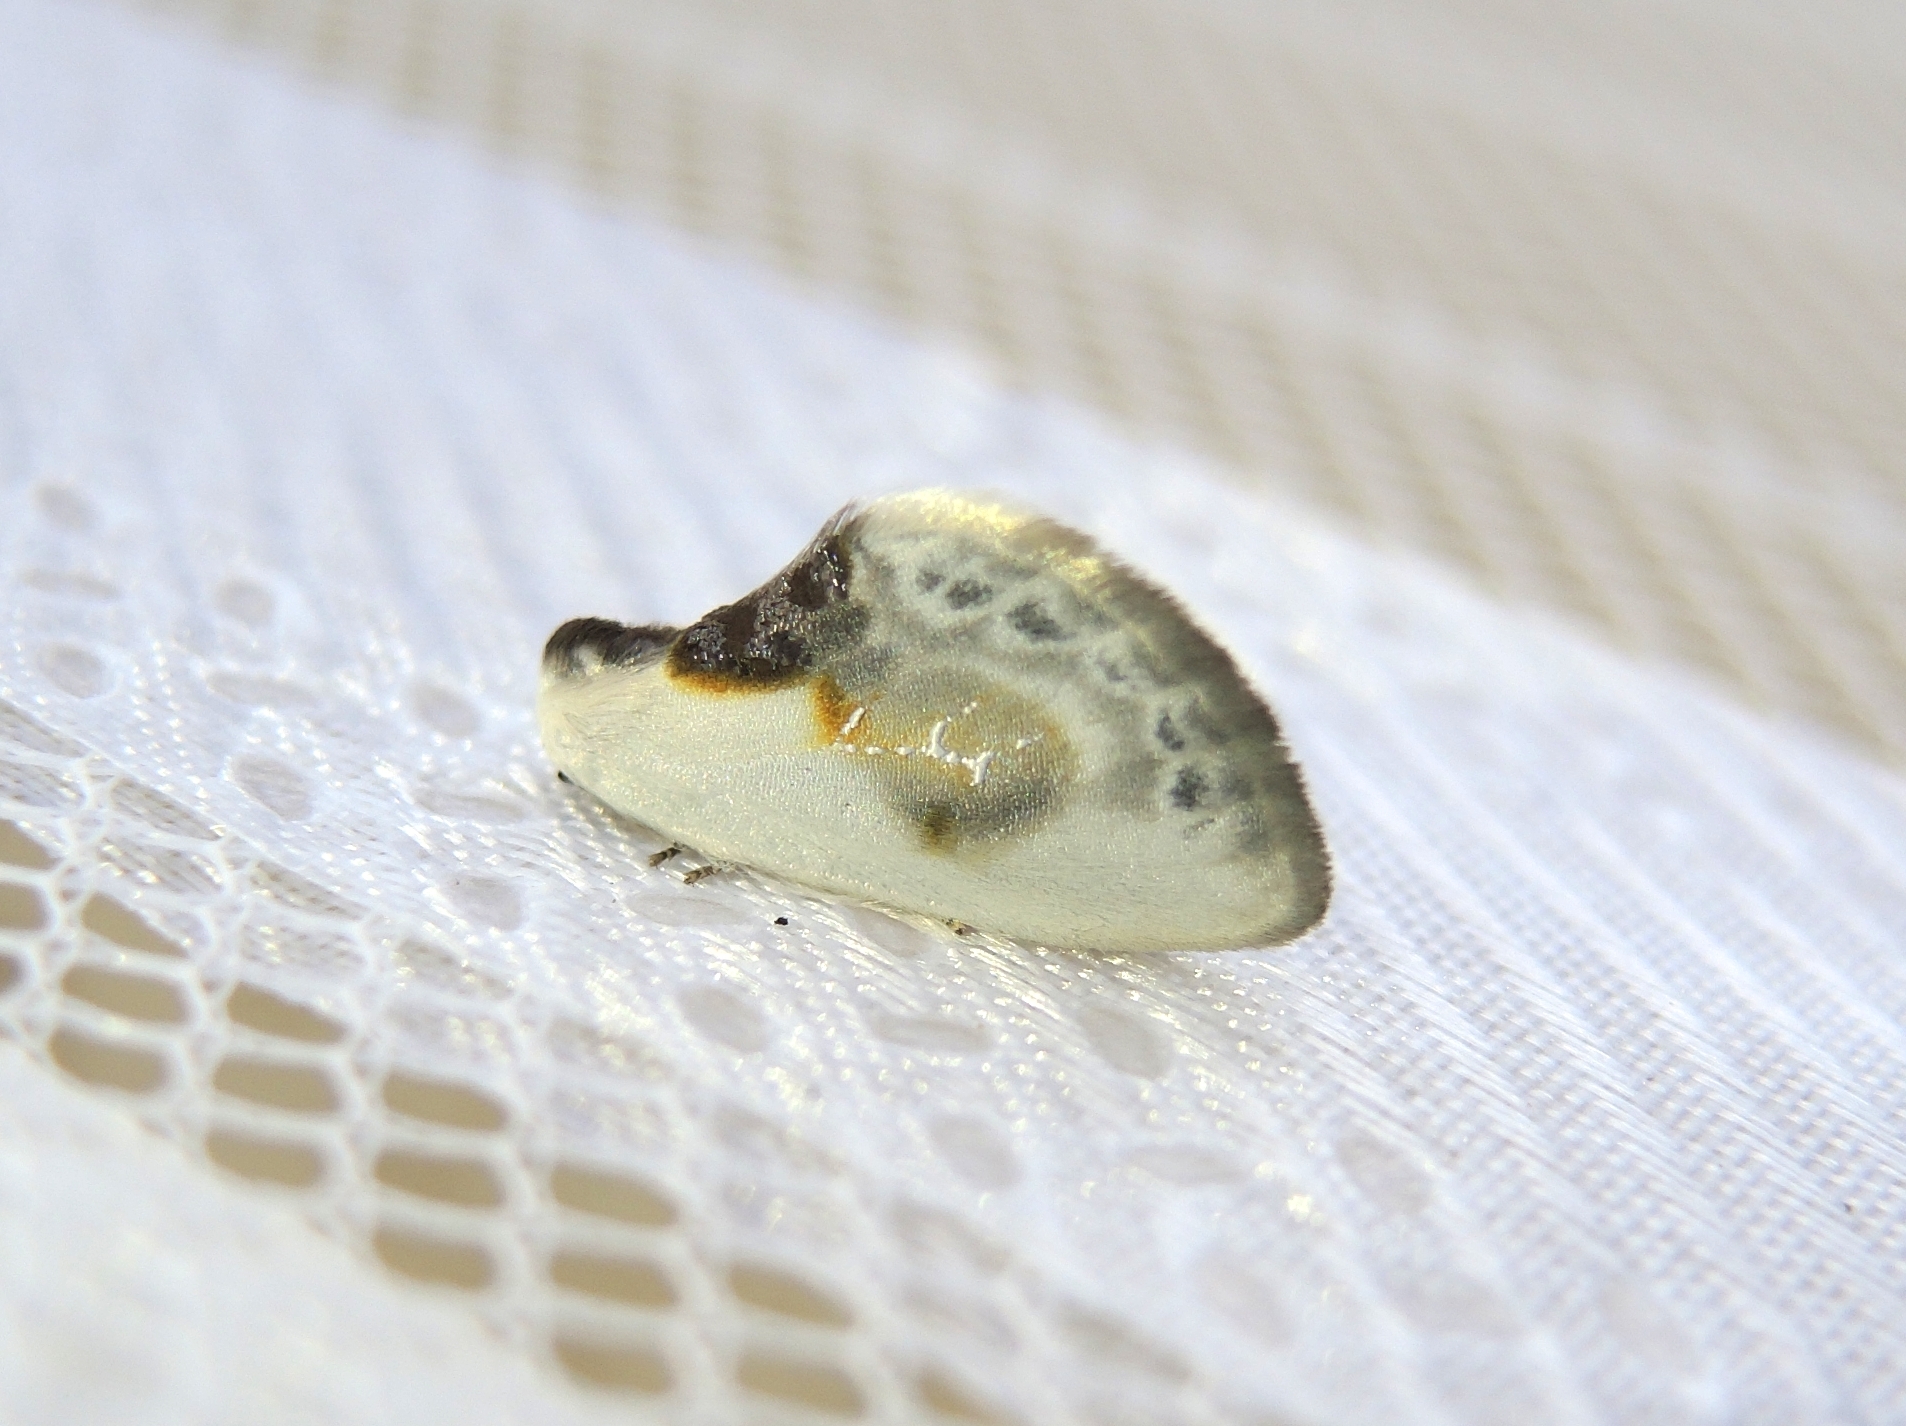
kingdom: Animalia
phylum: Arthropoda
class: Insecta
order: Lepidoptera
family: Drepanidae
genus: Cilix
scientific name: Cilix glaucata
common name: Chinese character
